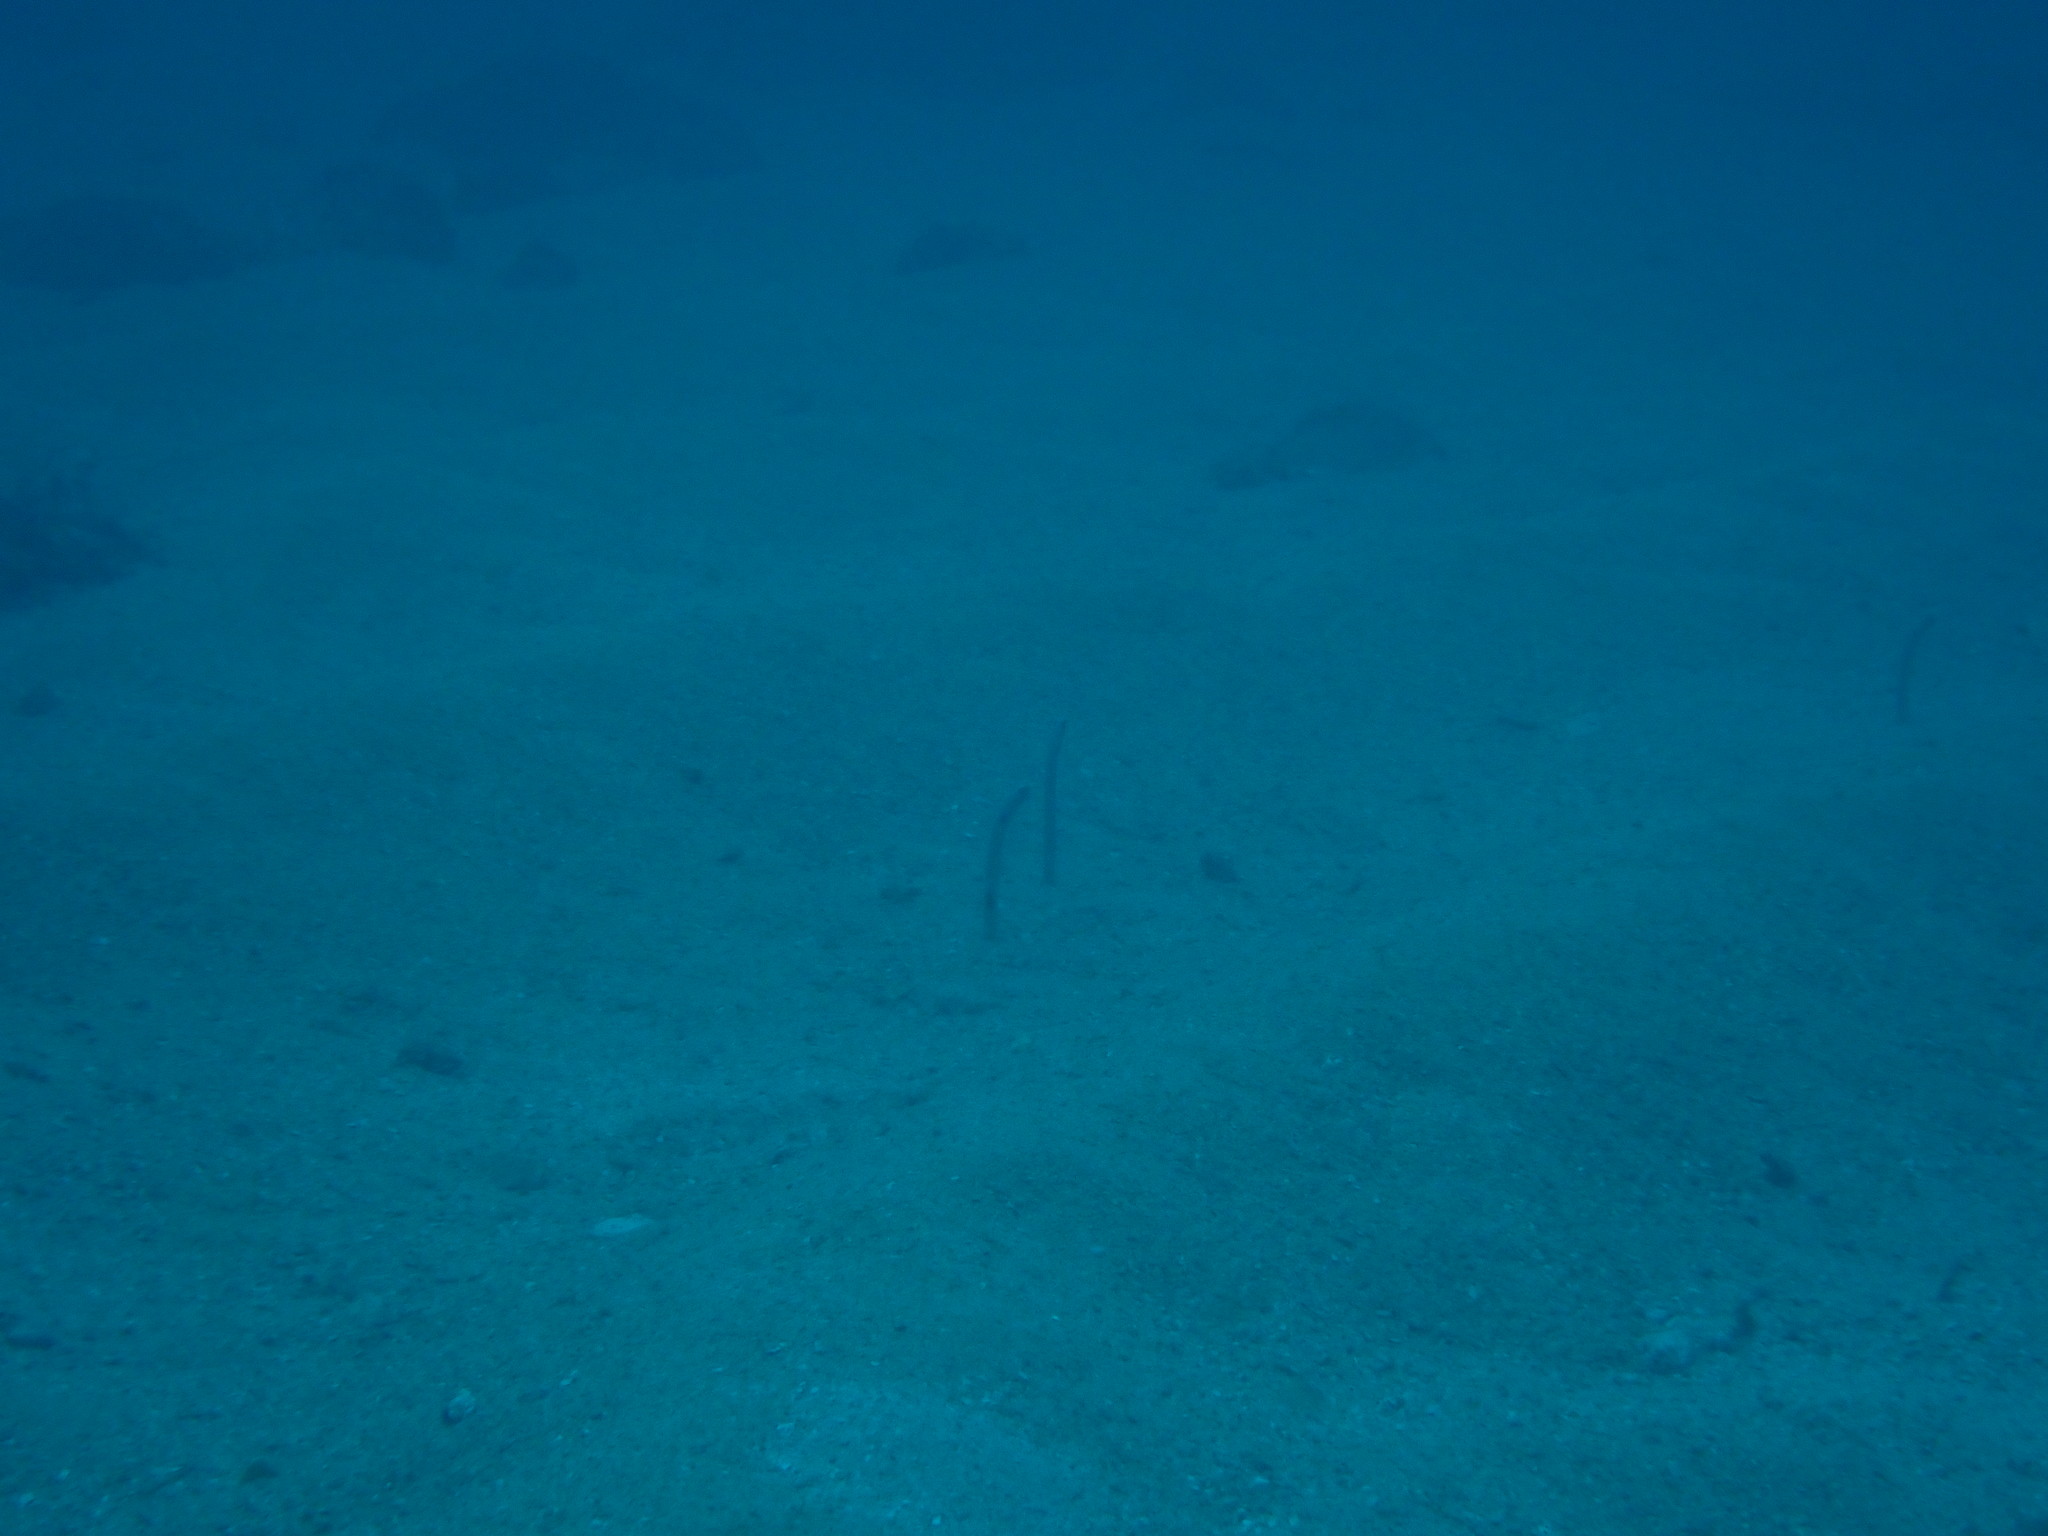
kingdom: Animalia
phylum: Chordata
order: Anguilliformes
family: Congridae
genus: Heteroconger
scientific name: Heteroconger hassi
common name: Spotted garden eel
